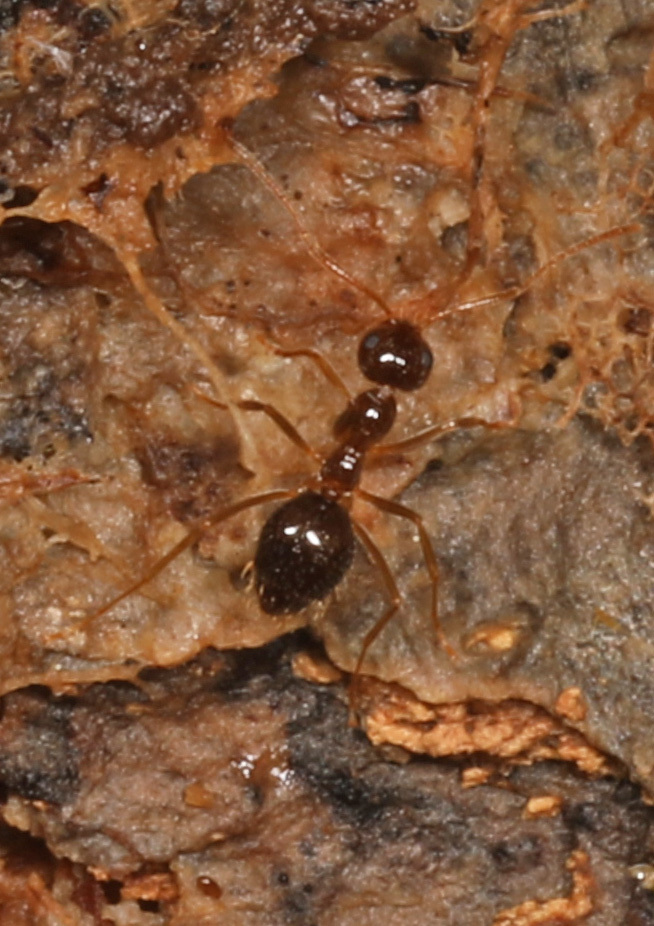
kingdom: Animalia
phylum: Arthropoda
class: Insecta
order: Hymenoptera
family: Formicidae
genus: Prenolepis
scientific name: Prenolepis imparis
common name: Small honey ant
